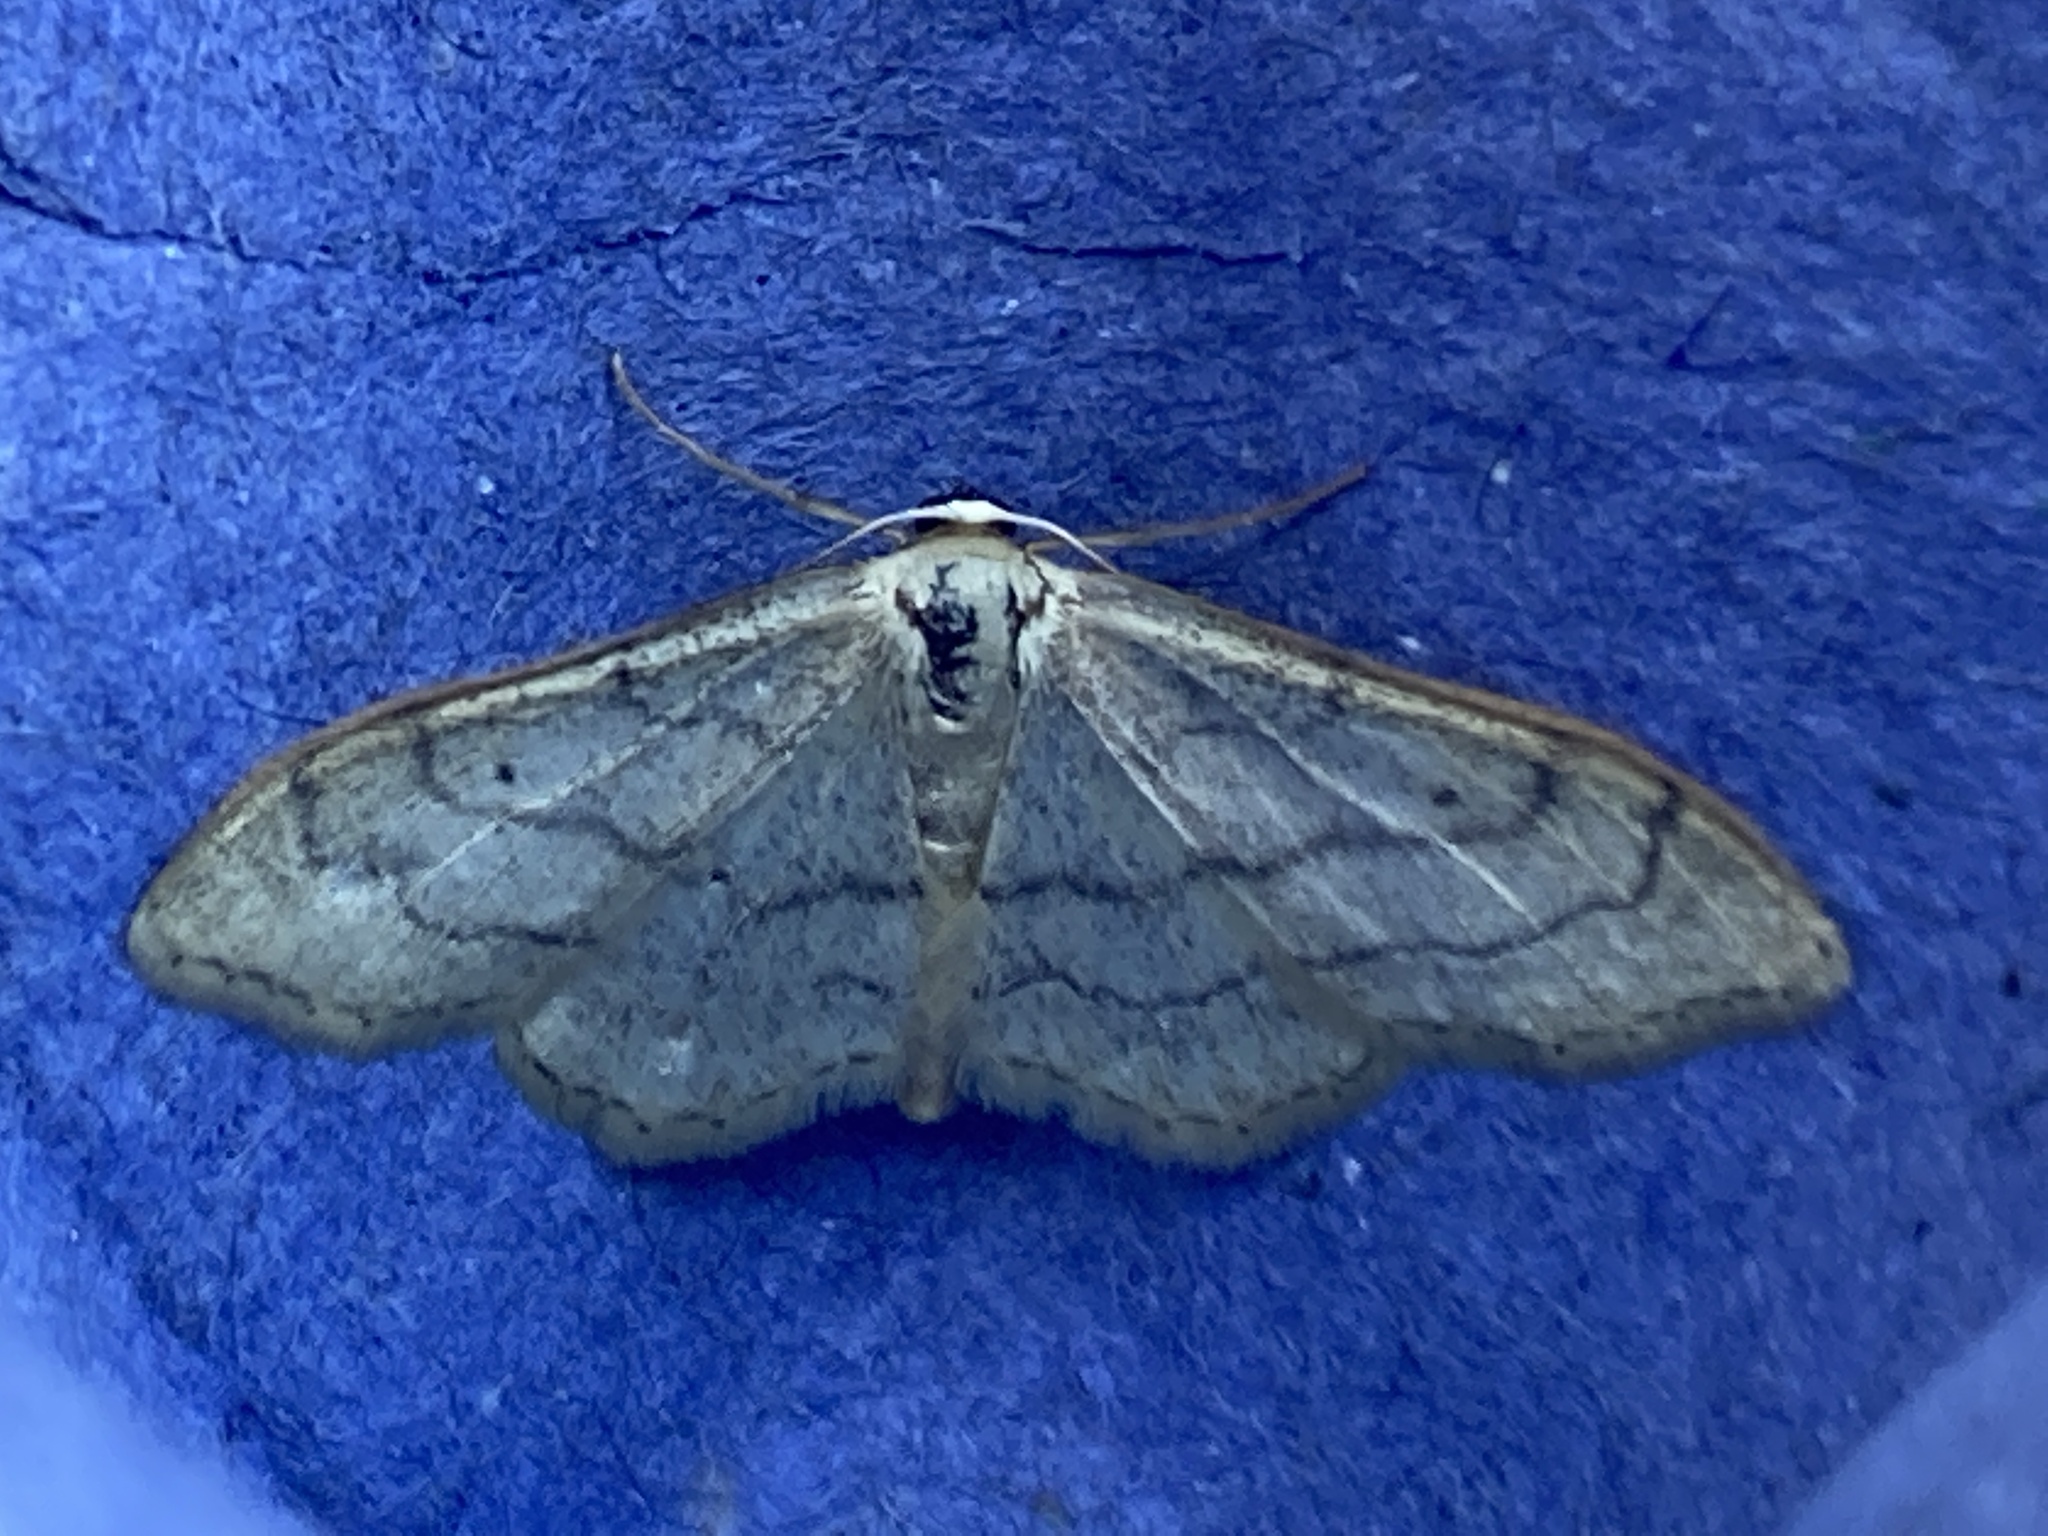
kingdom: Animalia
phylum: Arthropoda
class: Insecta
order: Lepidoptera
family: Geometridae
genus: Idaea
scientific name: Idaea aversata
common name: Riband wave
